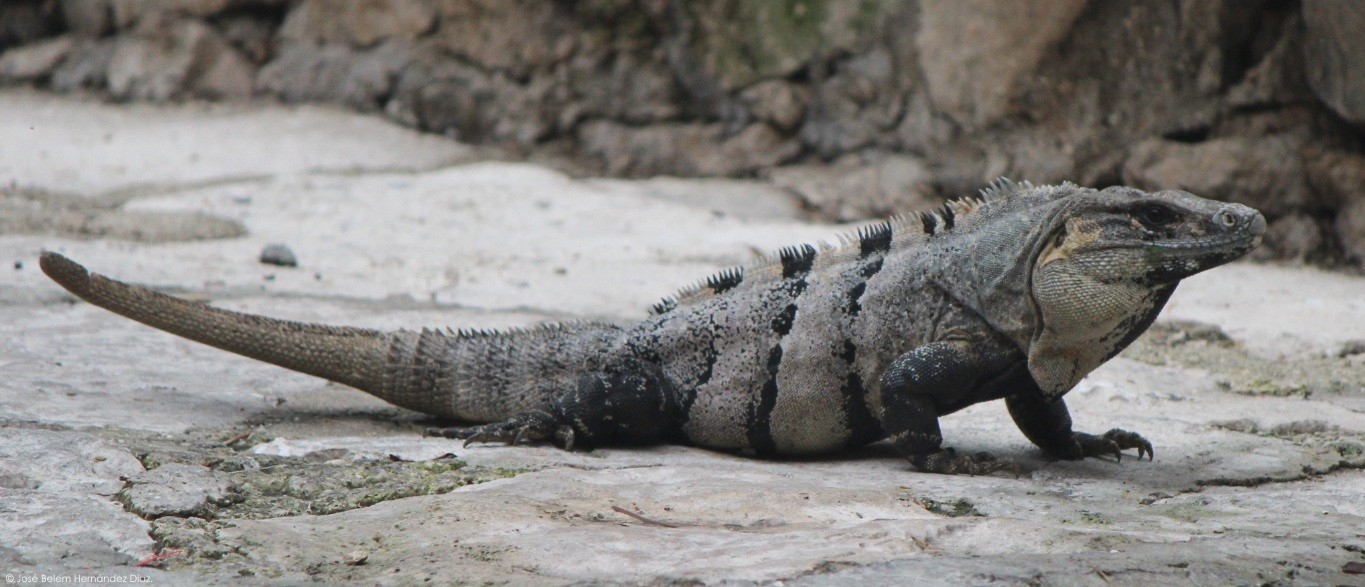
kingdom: Animalia
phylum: Chordata
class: Squamata
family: Iguanidae
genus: Ctenosaura
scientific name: Ctenosaura similis
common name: Black spiny-tailed iguana
